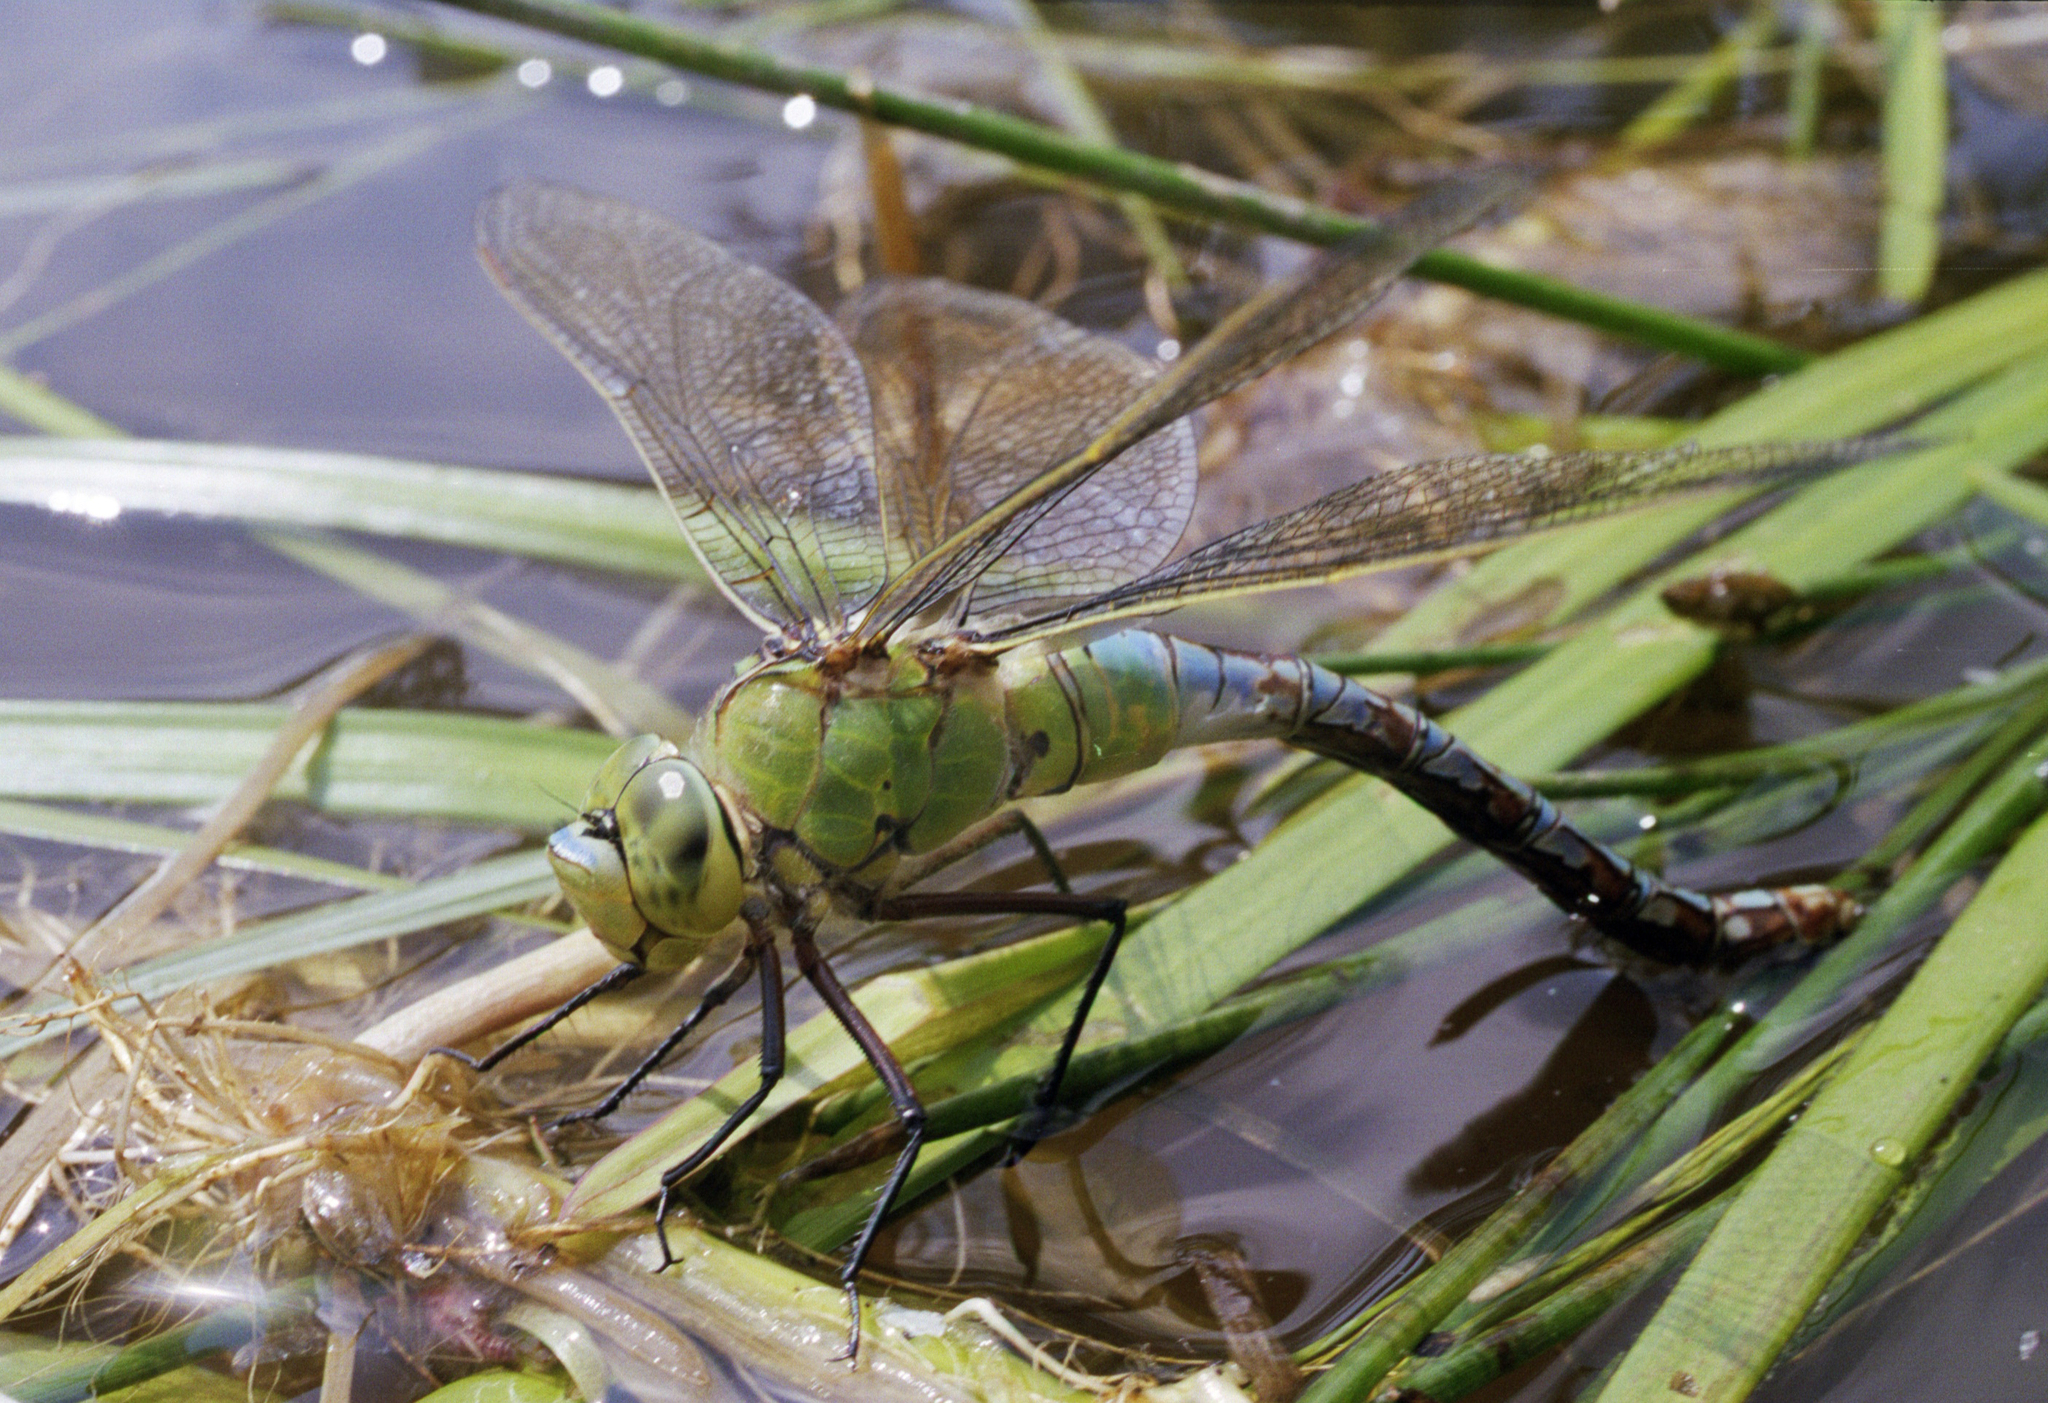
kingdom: Animalia
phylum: Arthropoda
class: Insecta
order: Odonata
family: Aeshnidae
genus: Anax
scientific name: Anax imperator
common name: Emperor dragonfly
